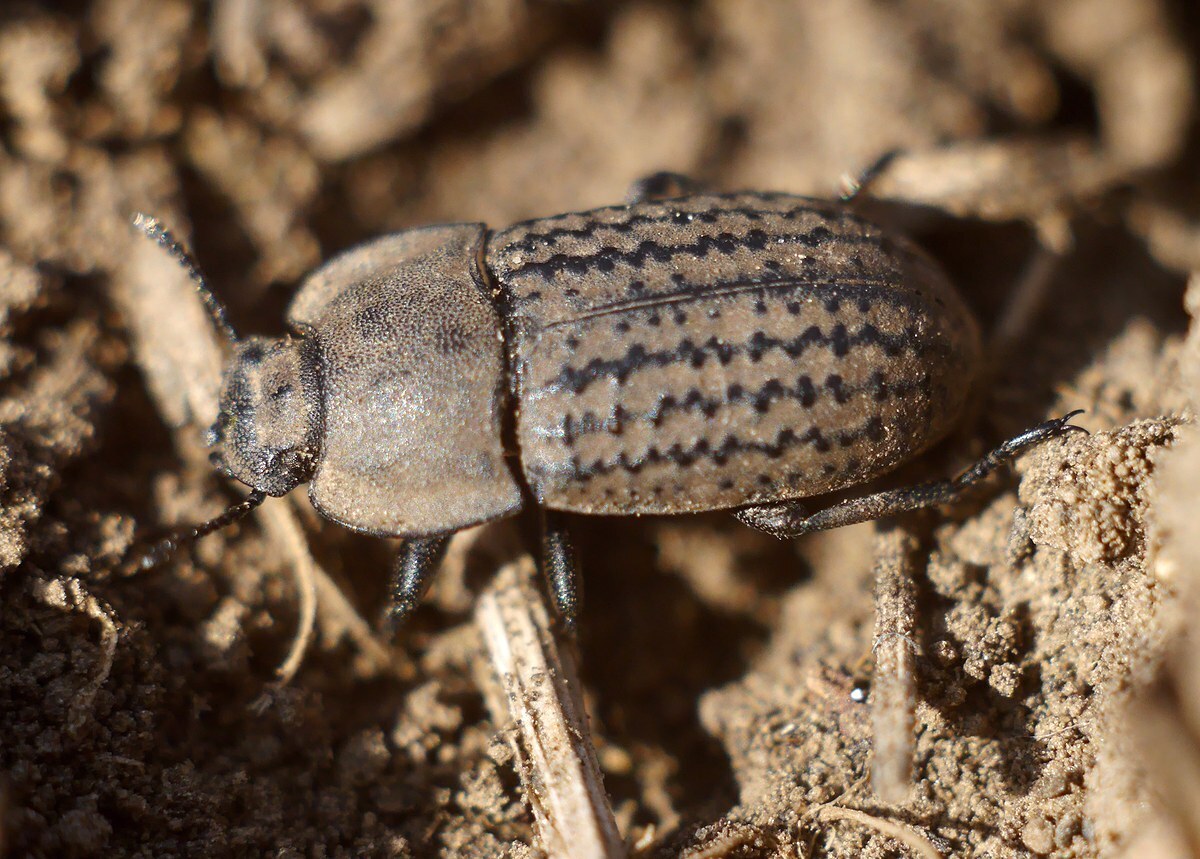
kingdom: Animalia
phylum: Arthropoda
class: Insecta
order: Coleoptera
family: Tenebrionidae
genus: Opatrum
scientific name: Opatrum sabulosum
